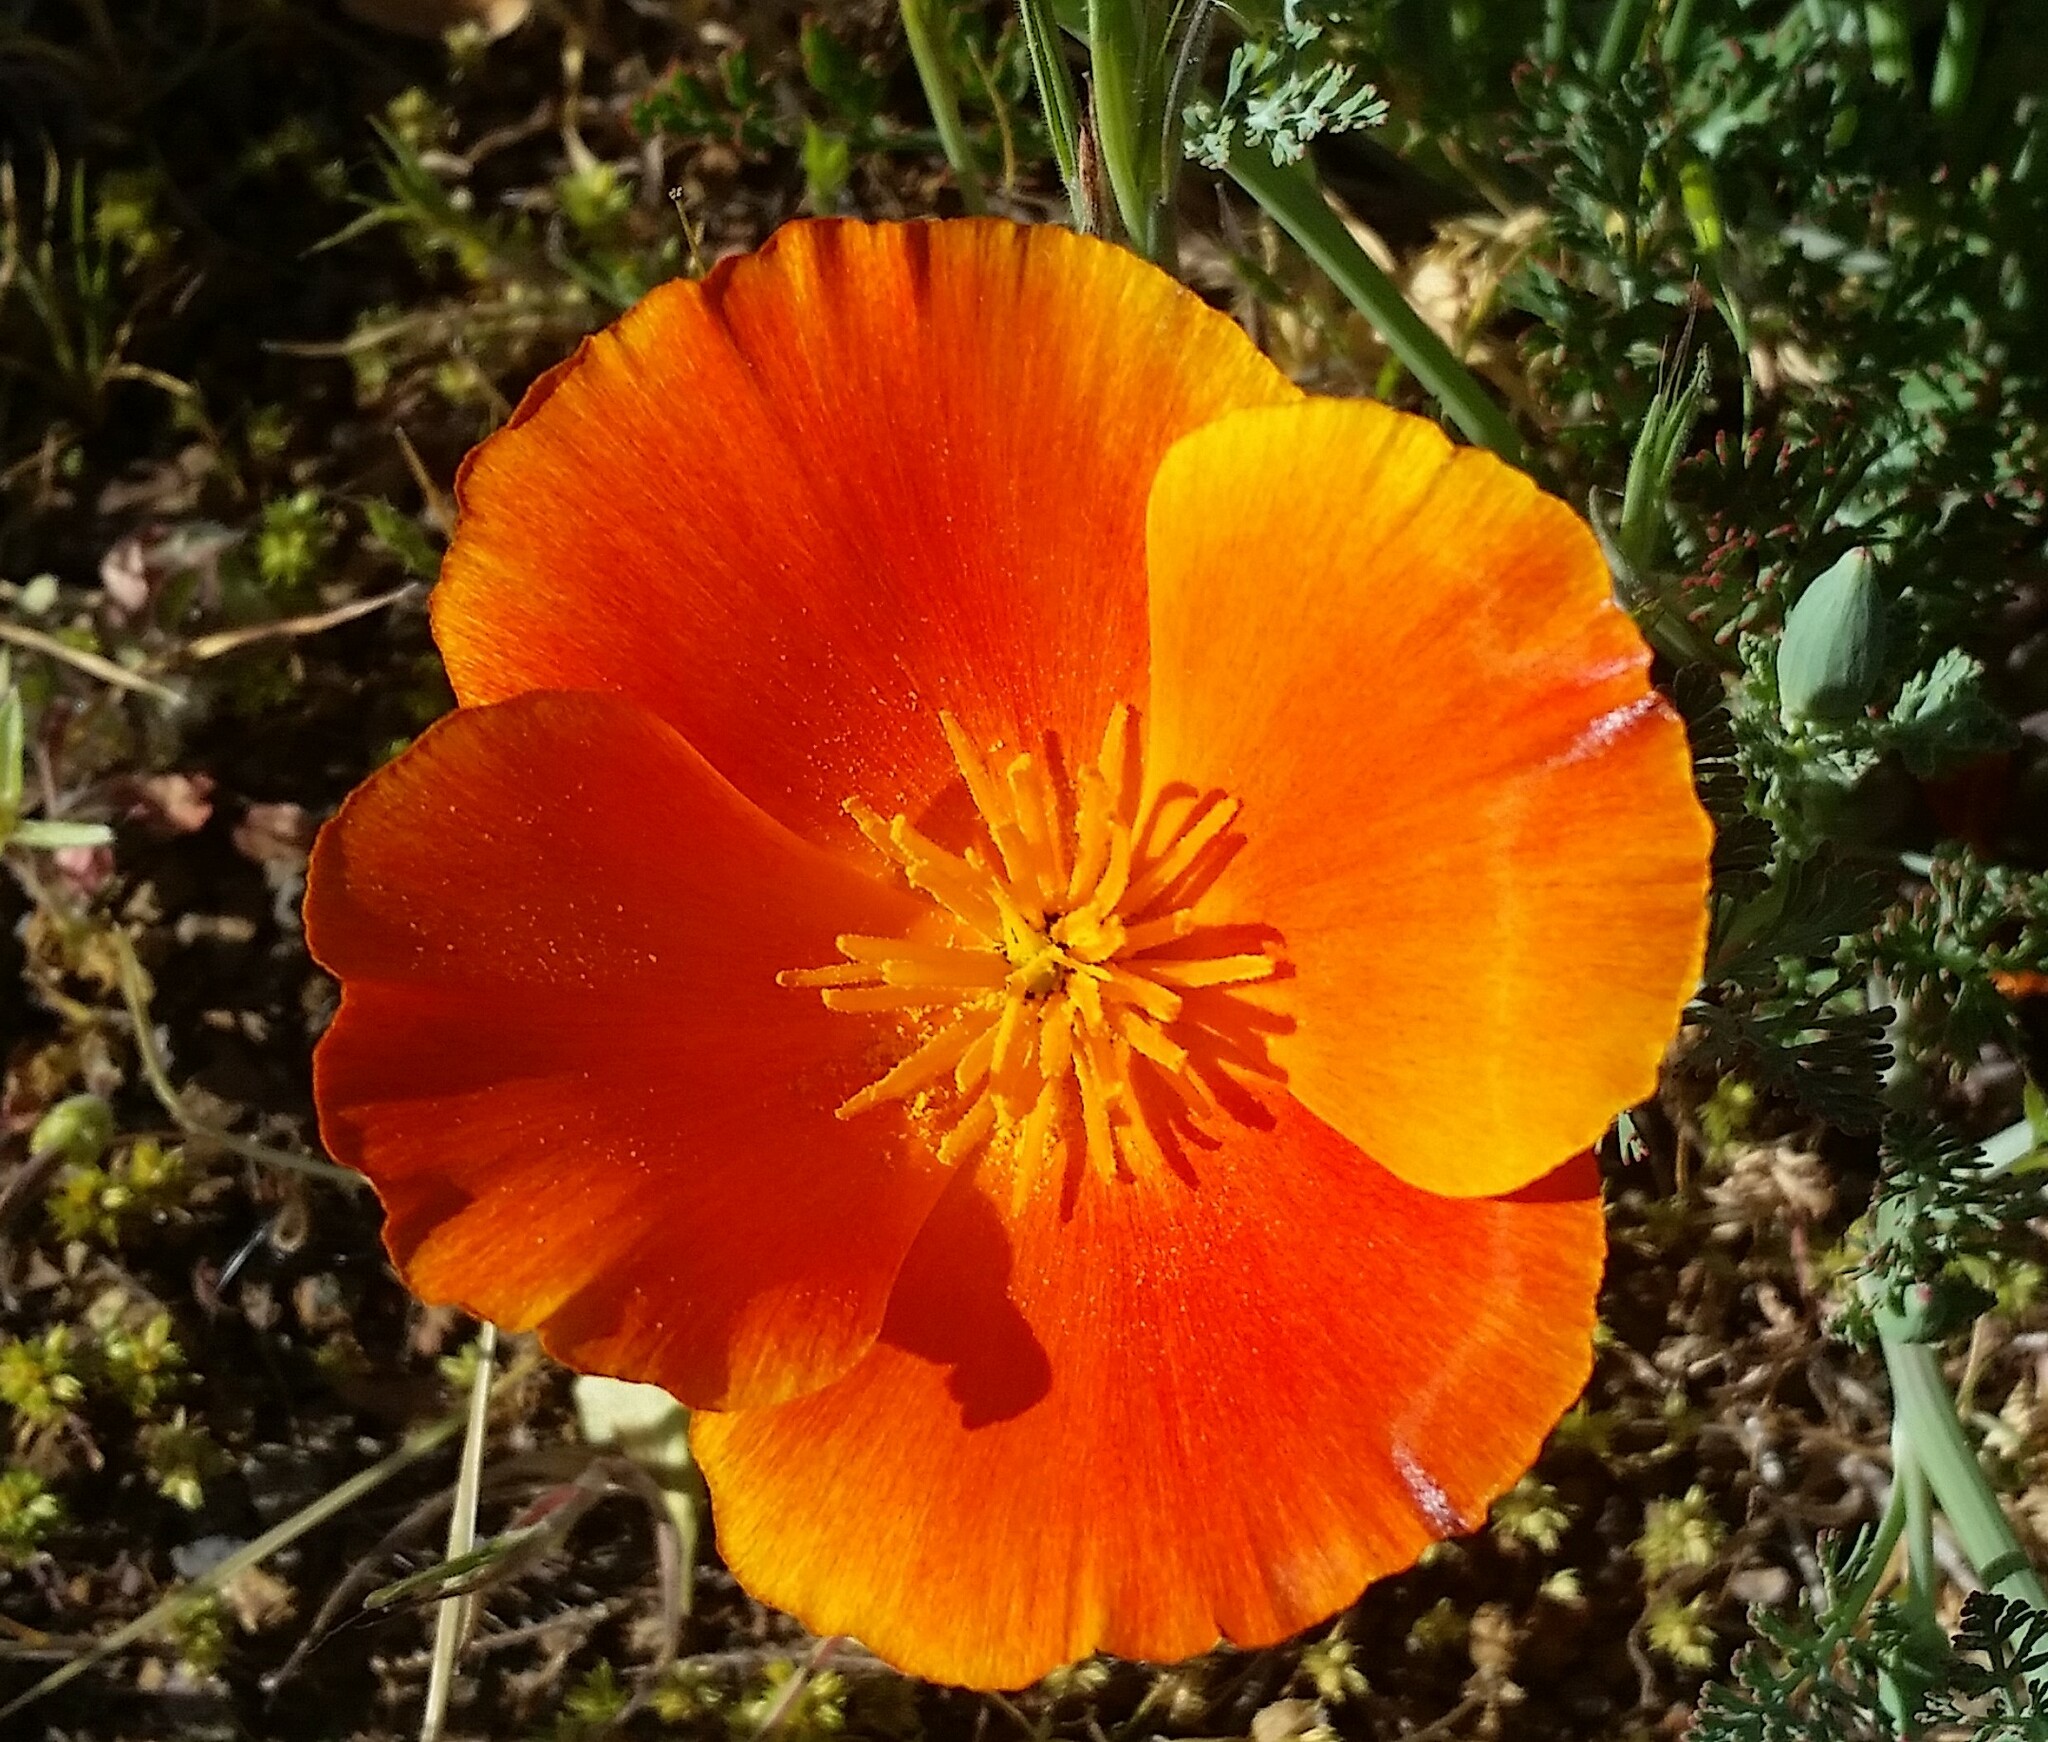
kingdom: Plantae
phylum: Tracheophyta
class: Magnoliopsida
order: Ranunculales
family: Papaveraceae
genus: Eschscholzia
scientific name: Eschscholzia californica
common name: California poppy
